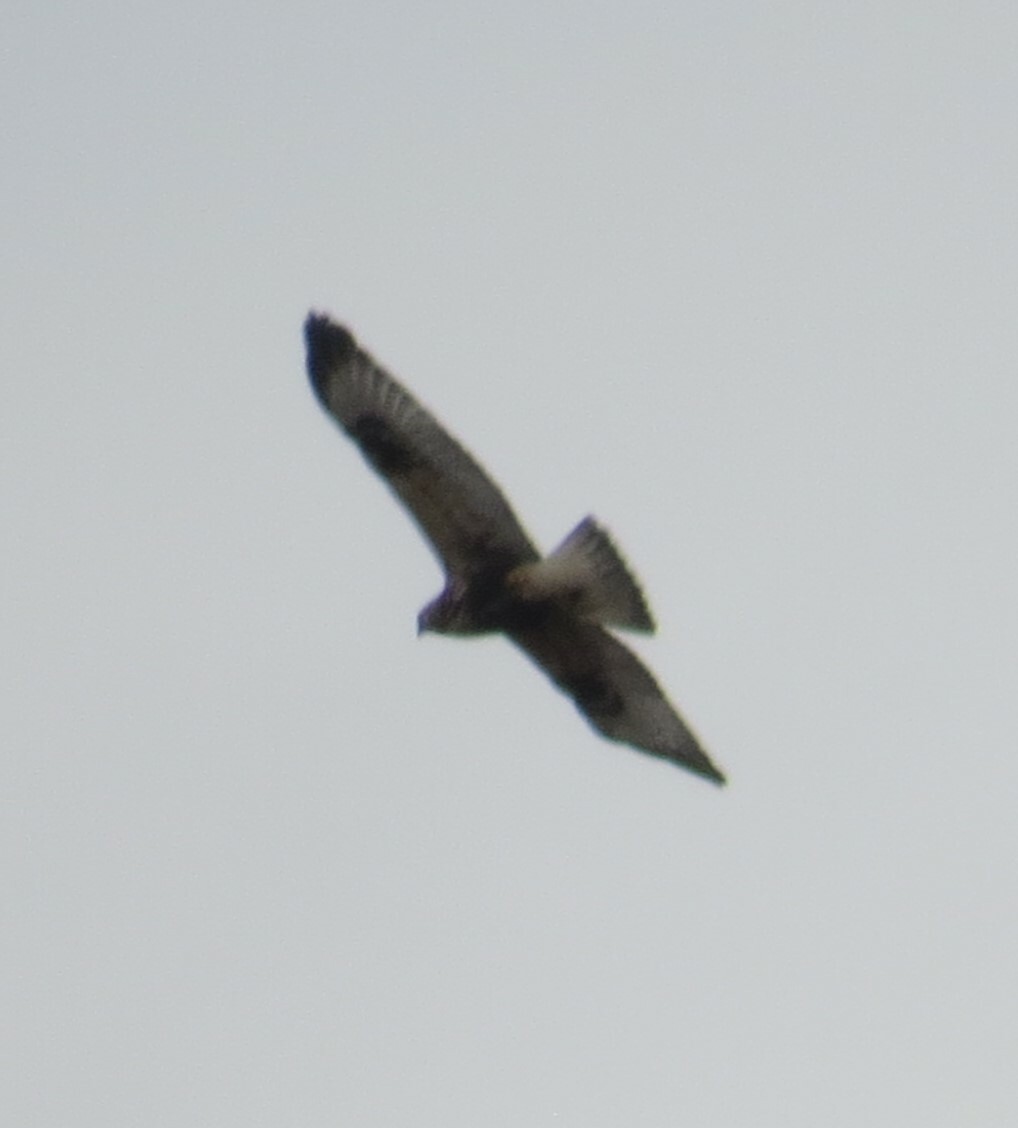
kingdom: Animalia
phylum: Chordata
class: Aves
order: Accipitriformes
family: Accipitridae
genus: Buteo
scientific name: Buteo lagopus
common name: Rough-legged buzzard
